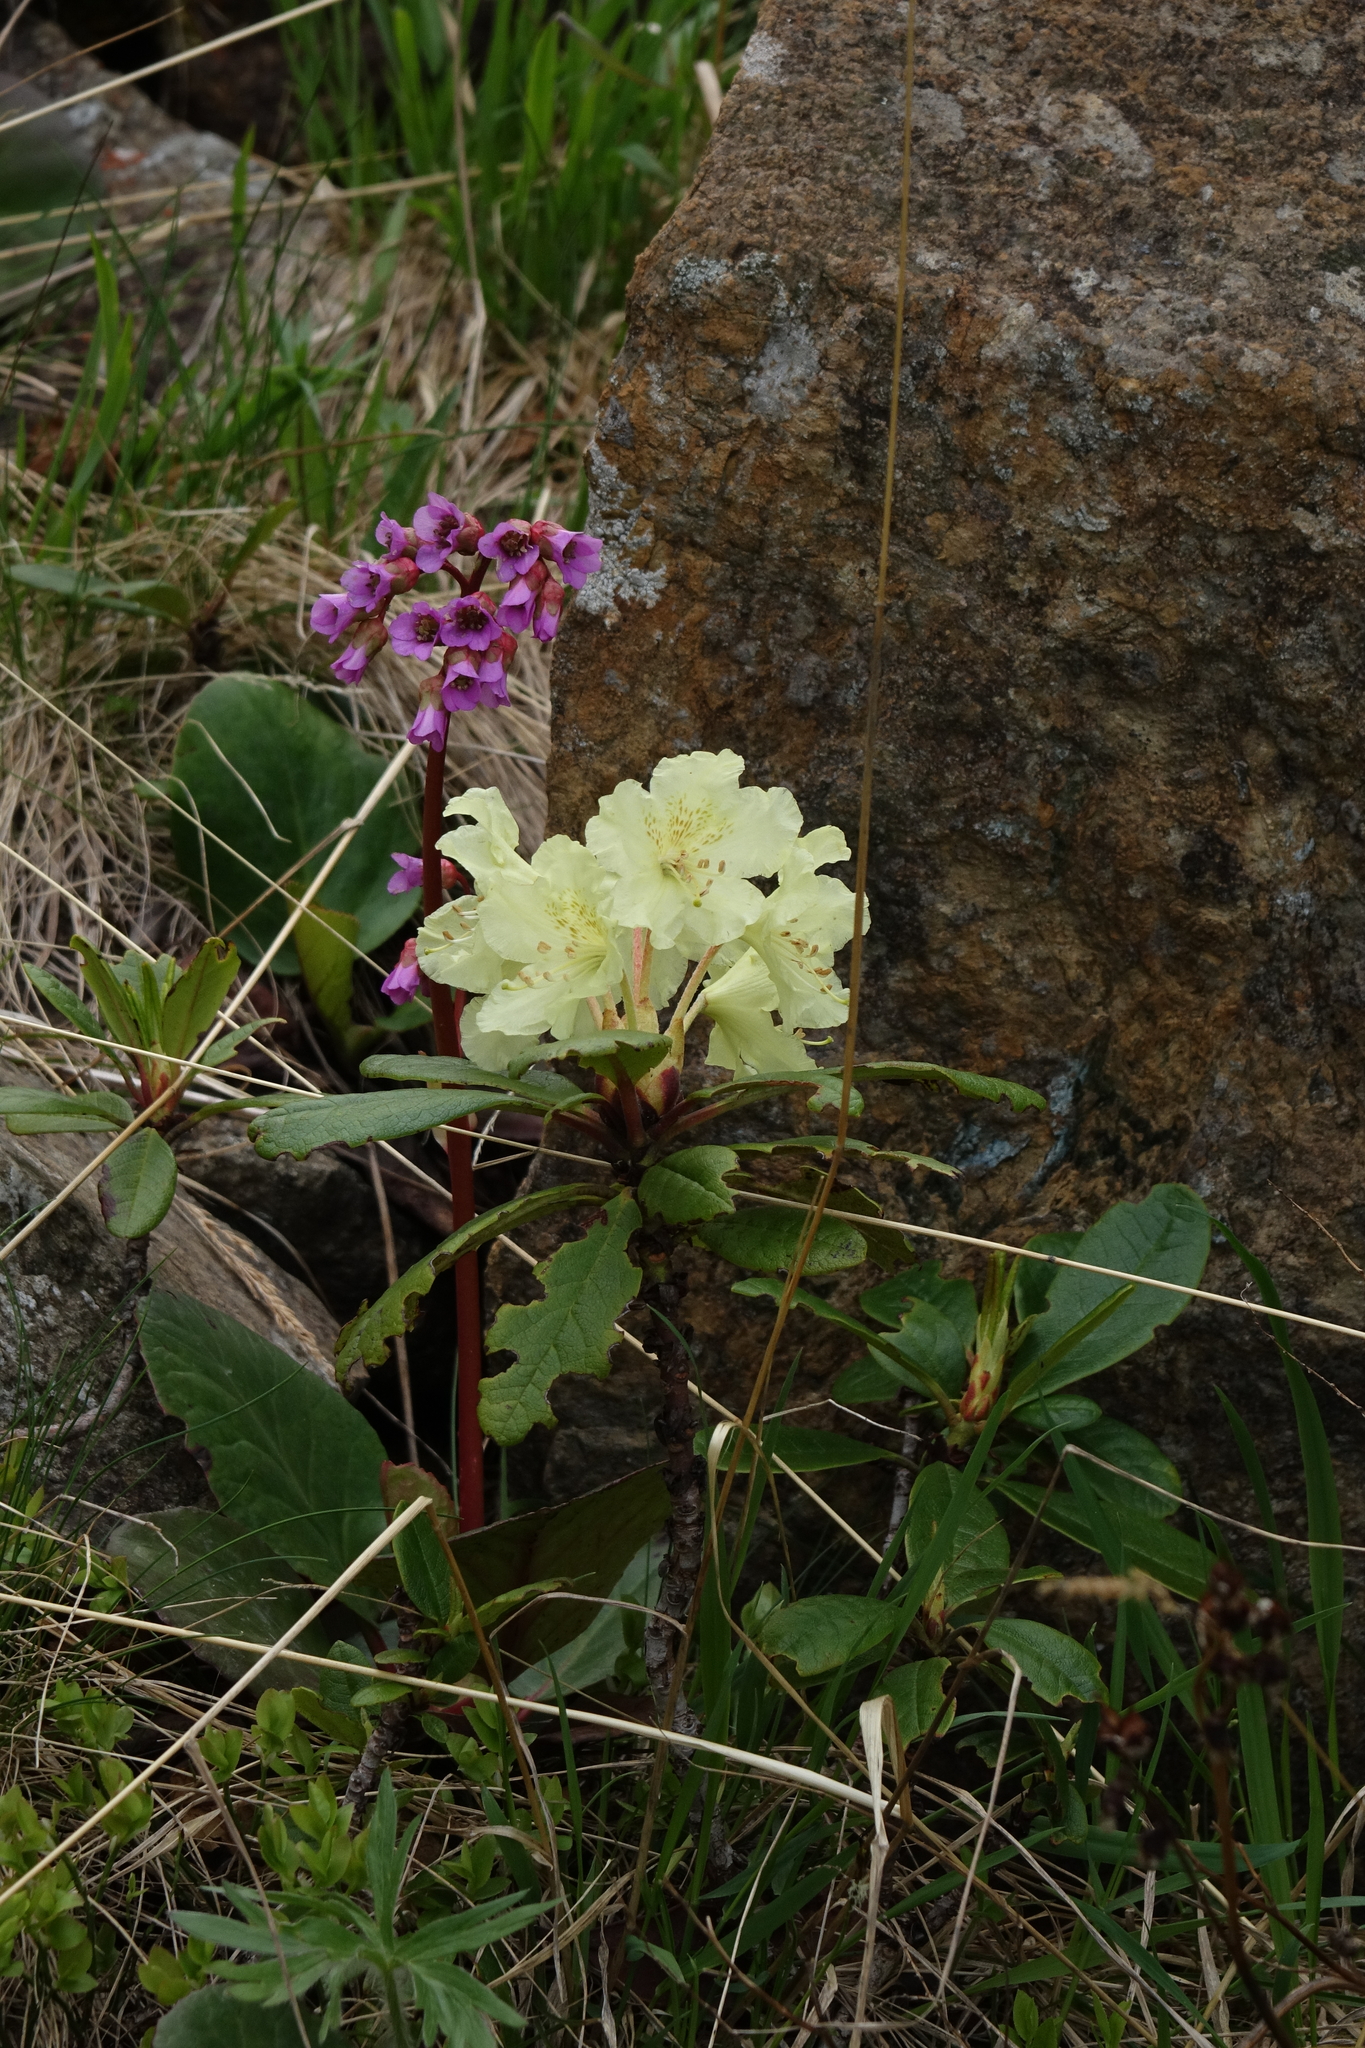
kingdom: Plantae
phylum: Tracheophyta
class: Magnoliopsida
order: Ericales
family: Ericaceae
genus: Rhododendron
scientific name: Rhododendron aureum
